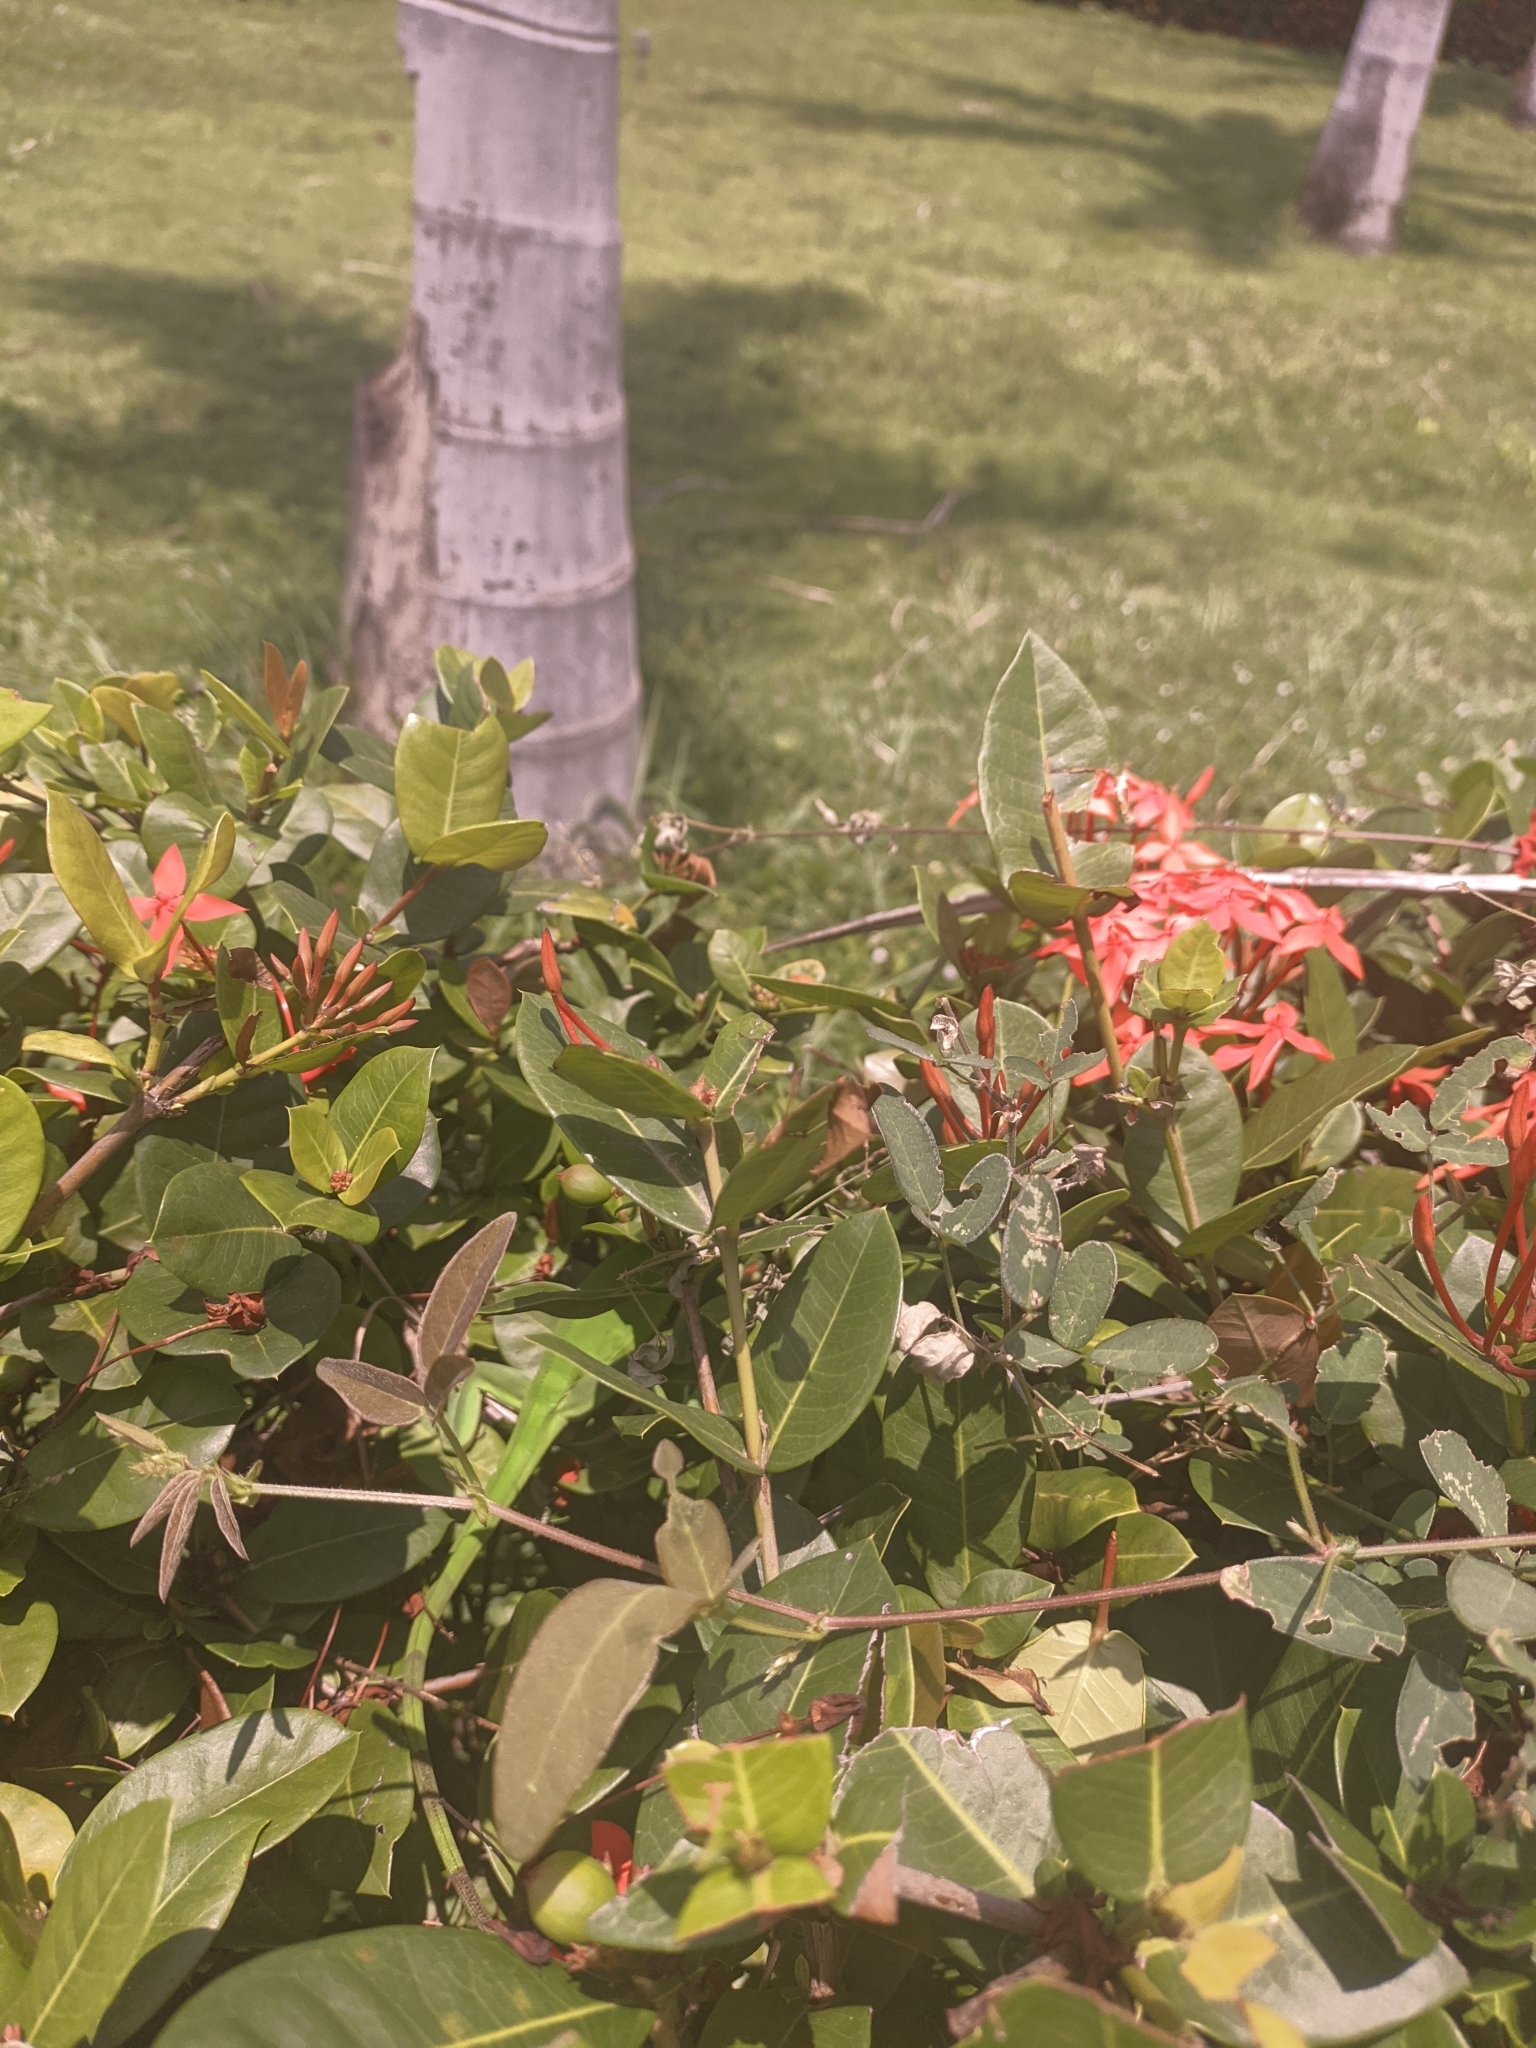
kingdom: Animalia
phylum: Chordata
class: Squamata
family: Iguanidae
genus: Iguana
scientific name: Iguana iguana
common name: Green iguana
